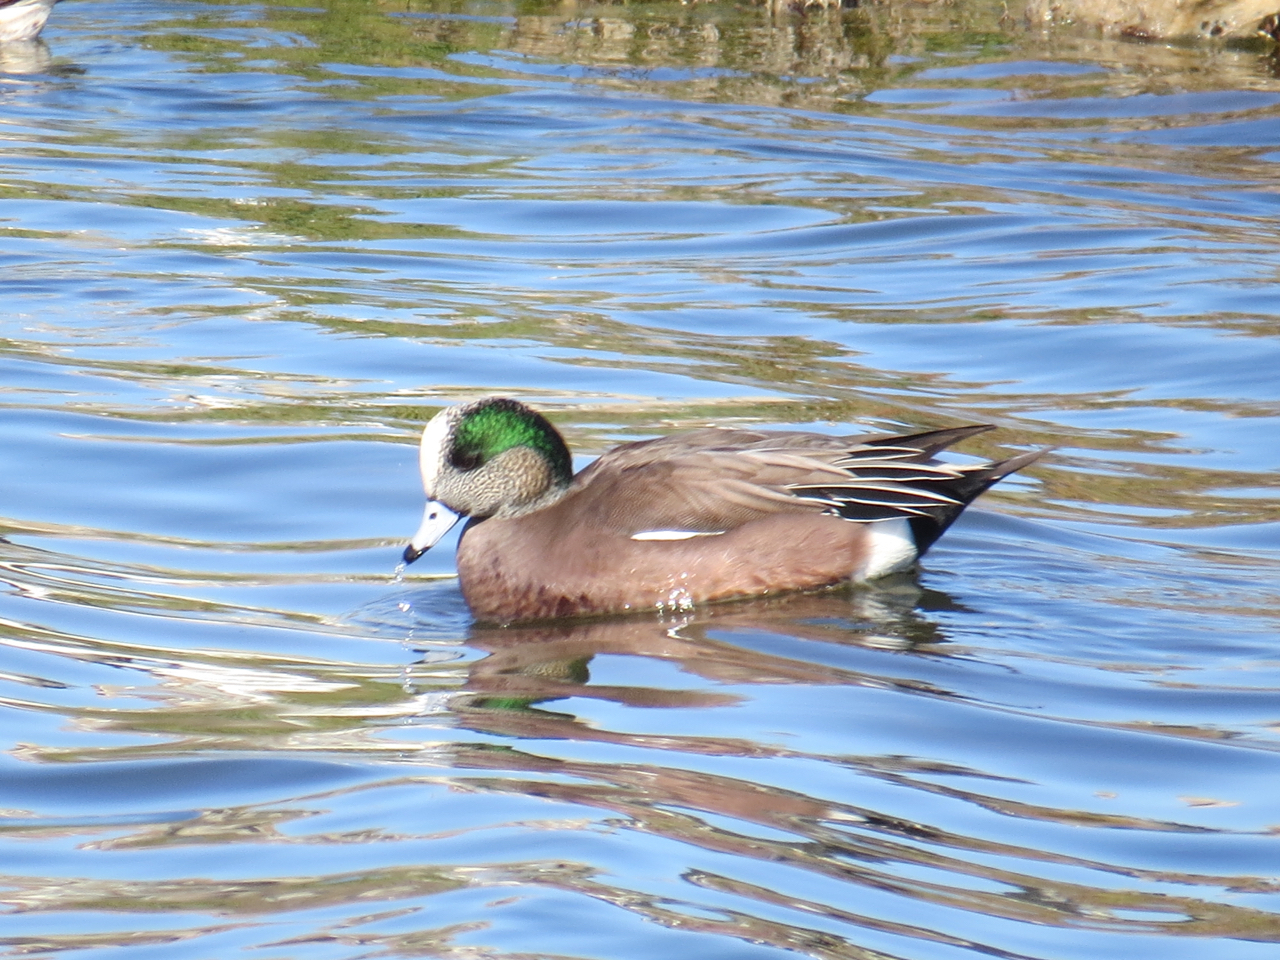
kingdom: Animalia
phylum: Chordata
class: Aves
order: Anseriformes
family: Anatidae
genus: Mareca
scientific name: Mareca americana
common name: American wigeon
